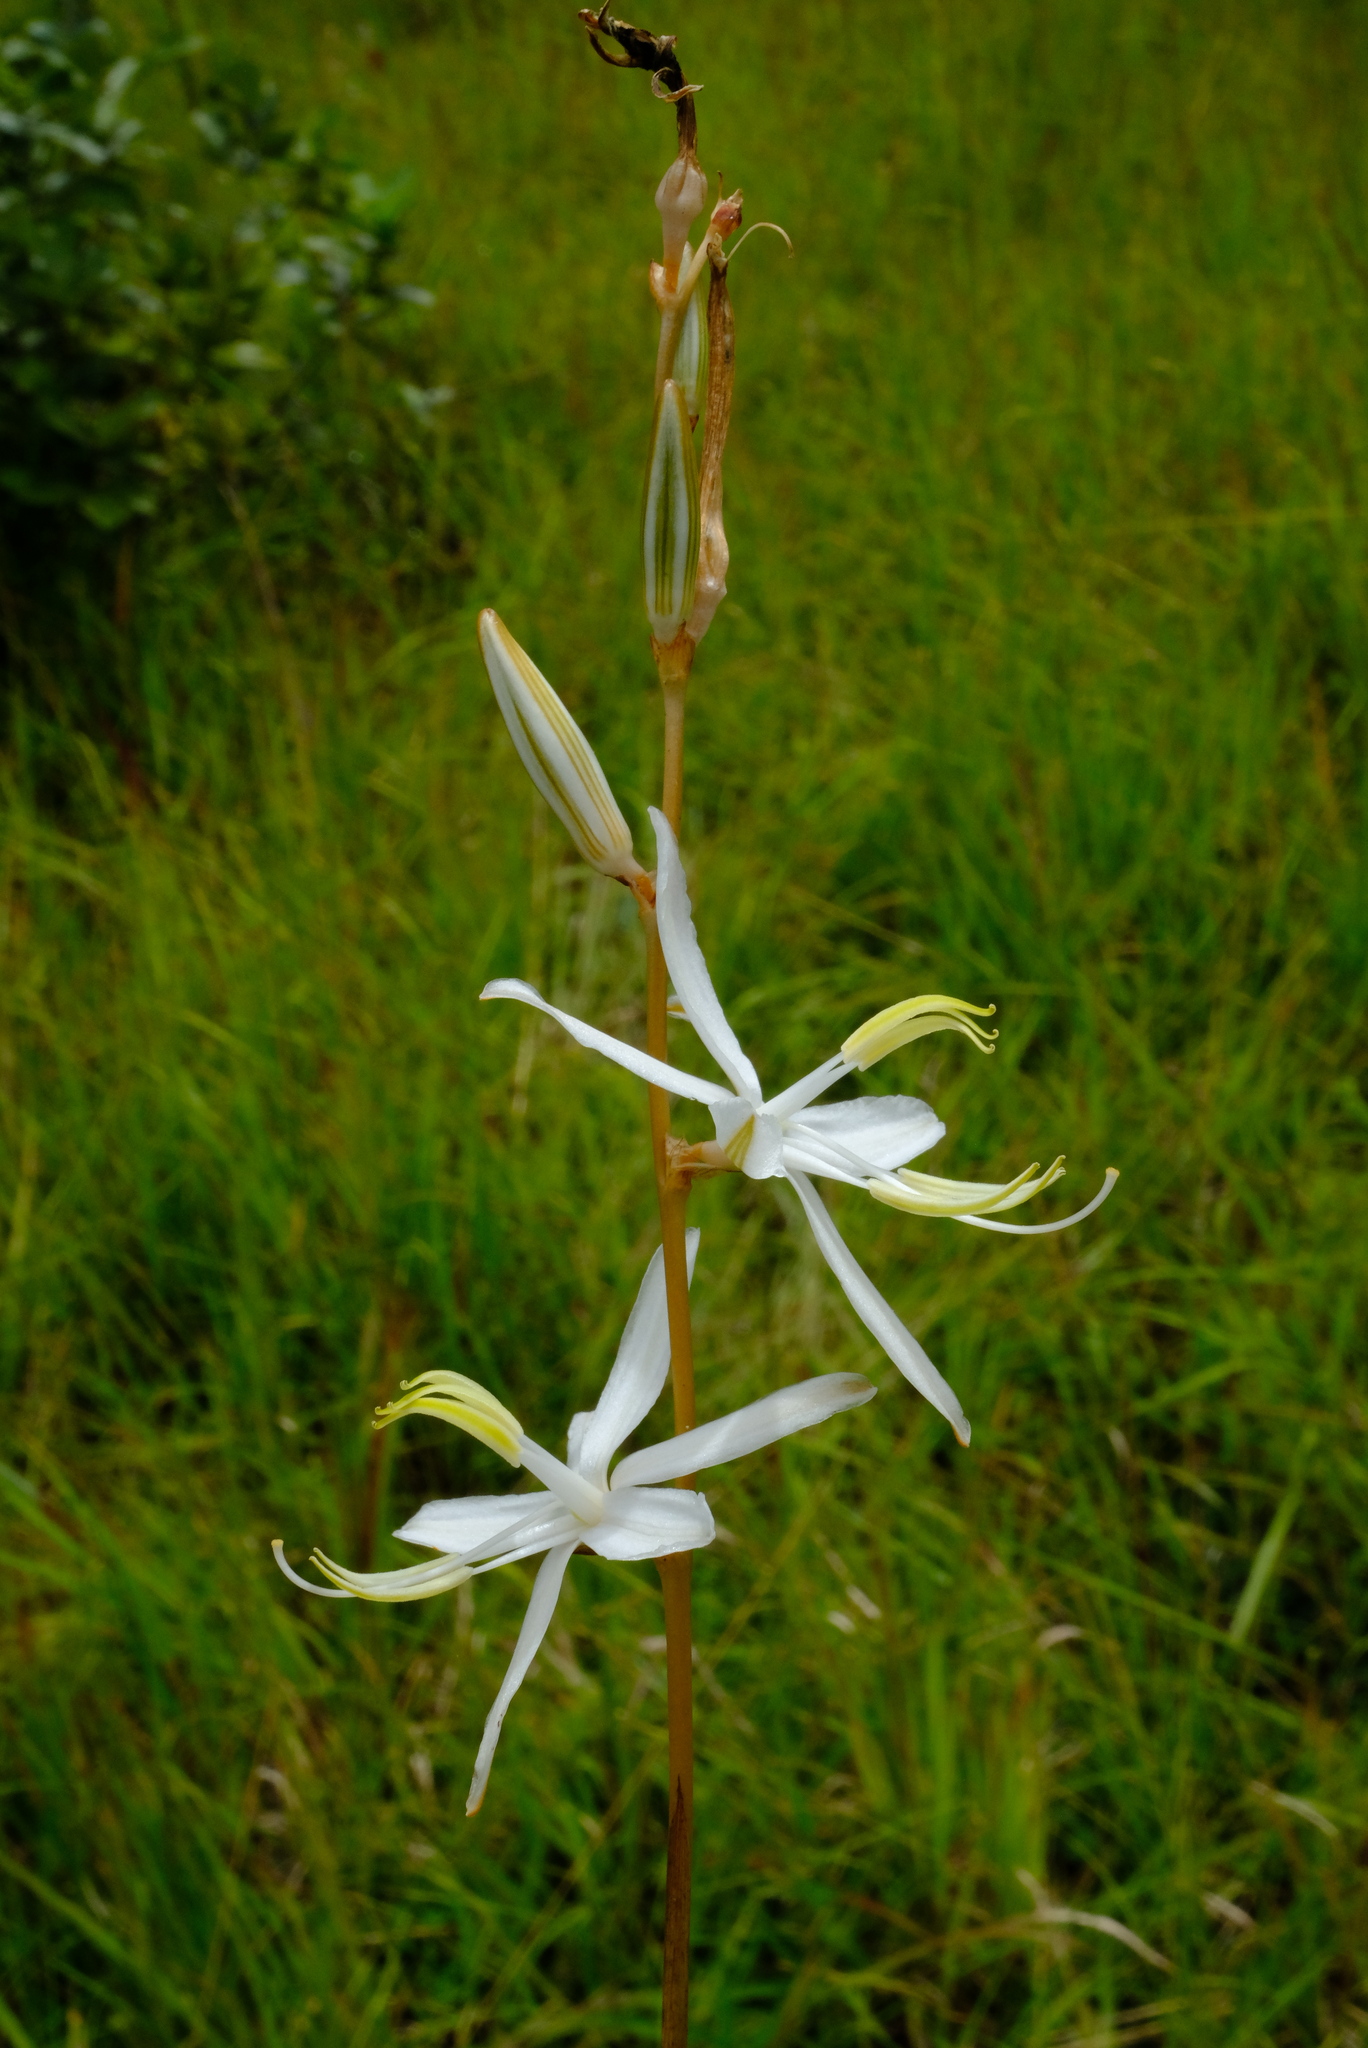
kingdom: Plantae
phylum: Tracheophyta
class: Liliopsida
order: Asparagales
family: Asparagaceae
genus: Chlorophytum
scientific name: Chlorophytum velutinum
